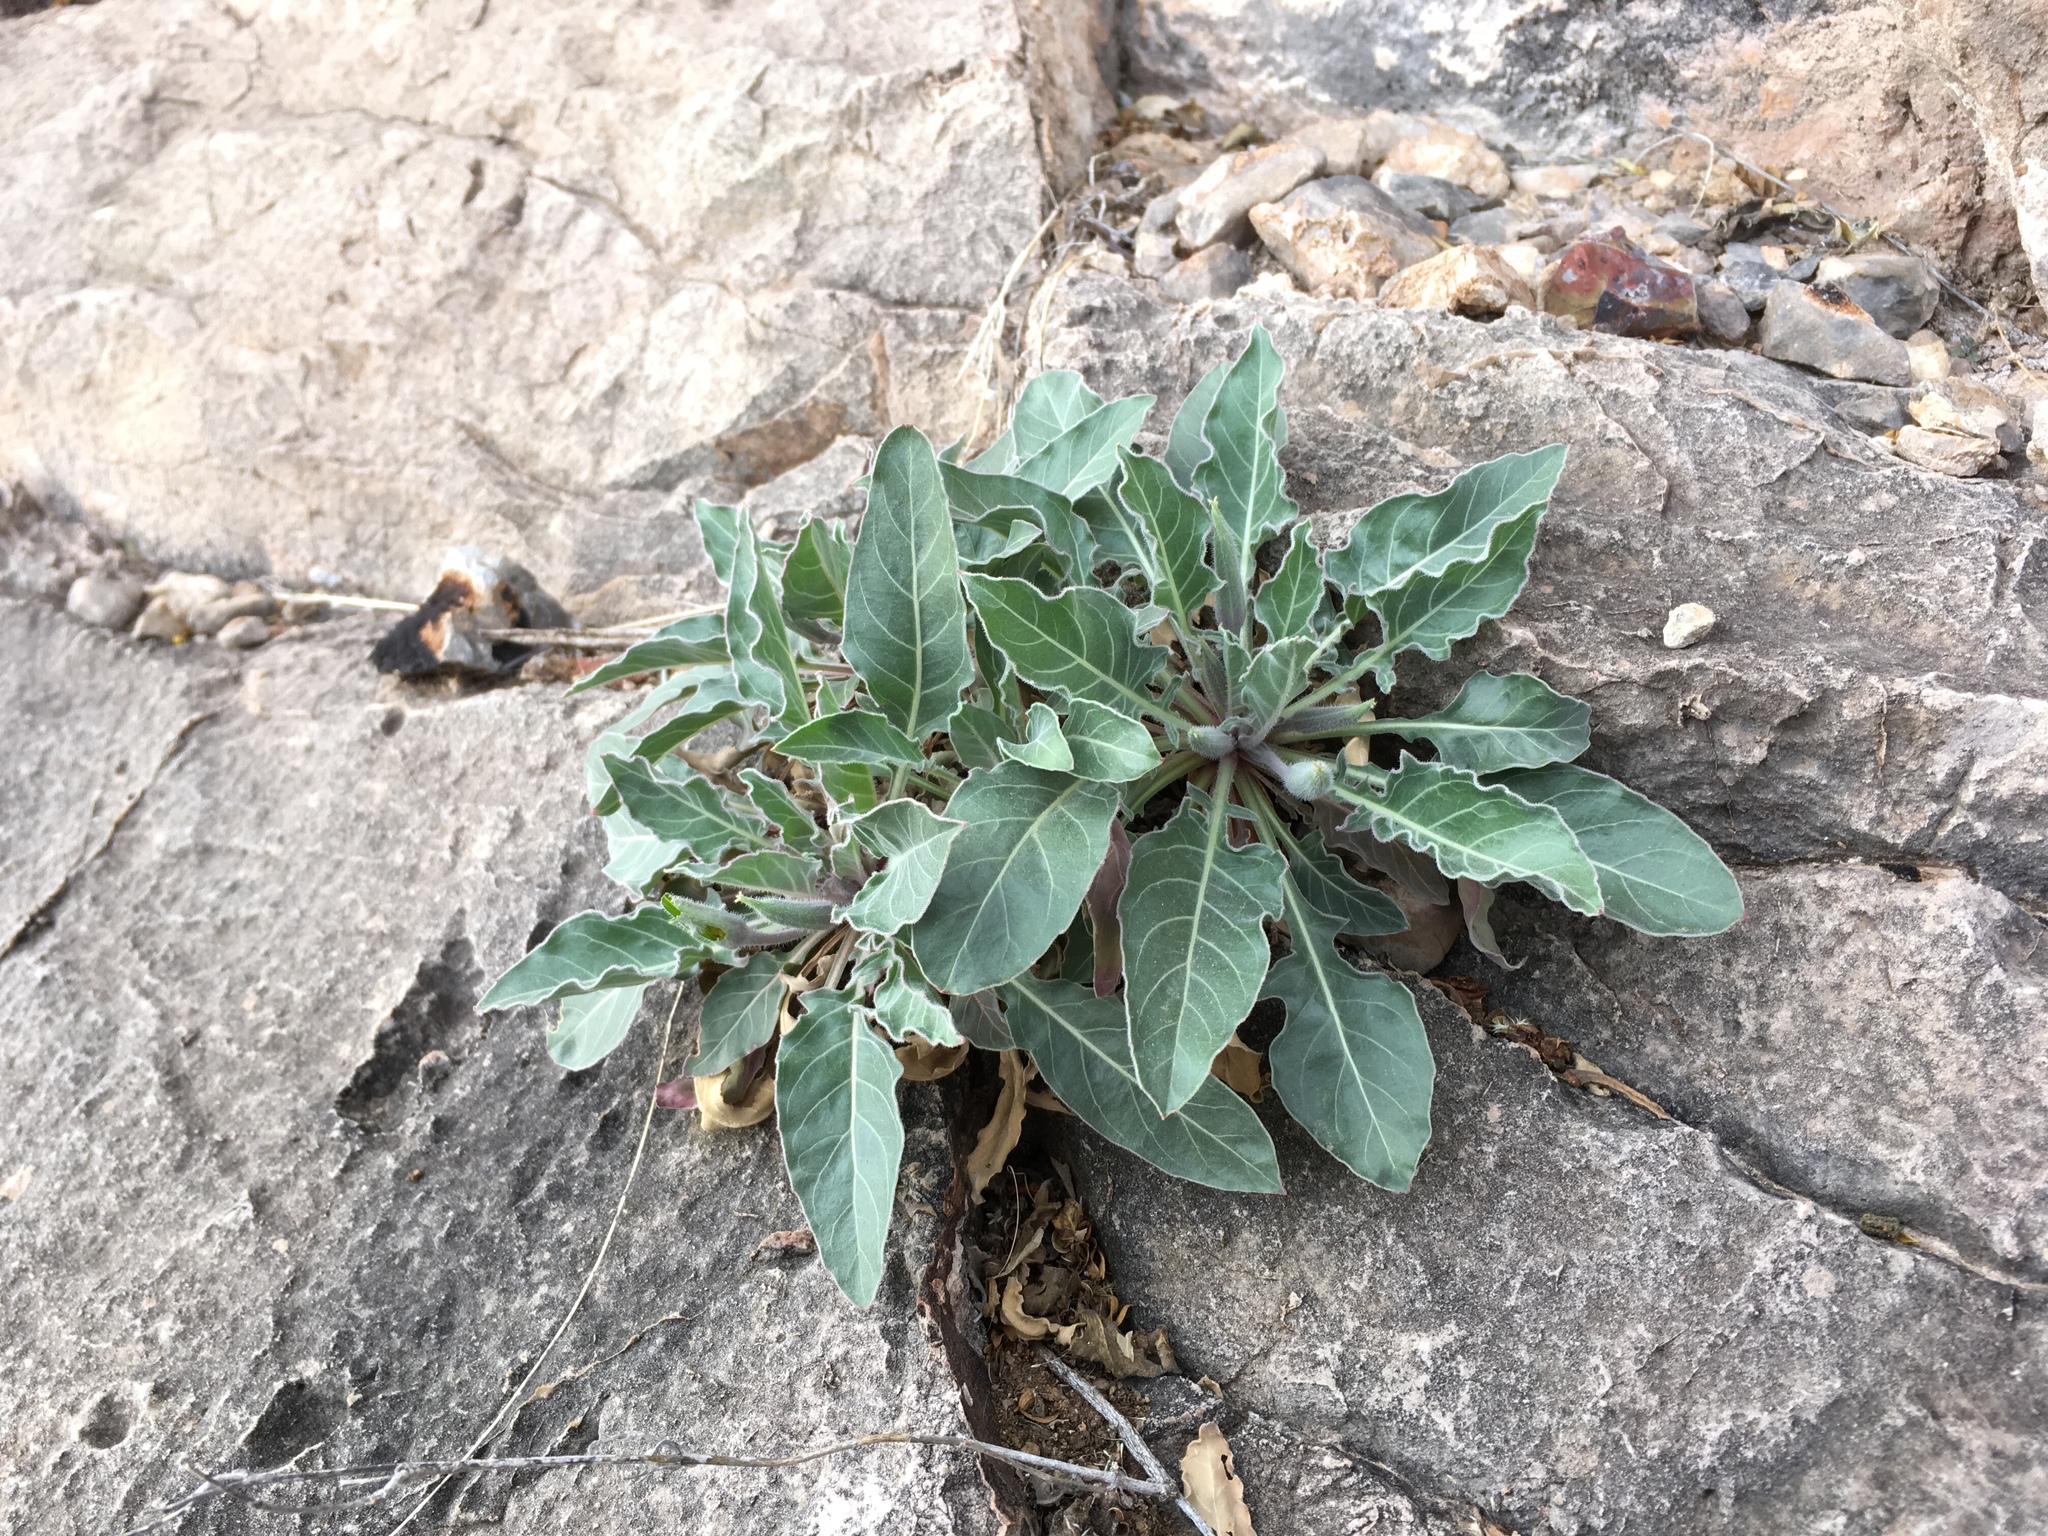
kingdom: Plantae
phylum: Tracheophyta
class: Magnoliopsida
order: Myrtales
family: Onagraceae
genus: Oenothera
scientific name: Oenothera brachycarpa
